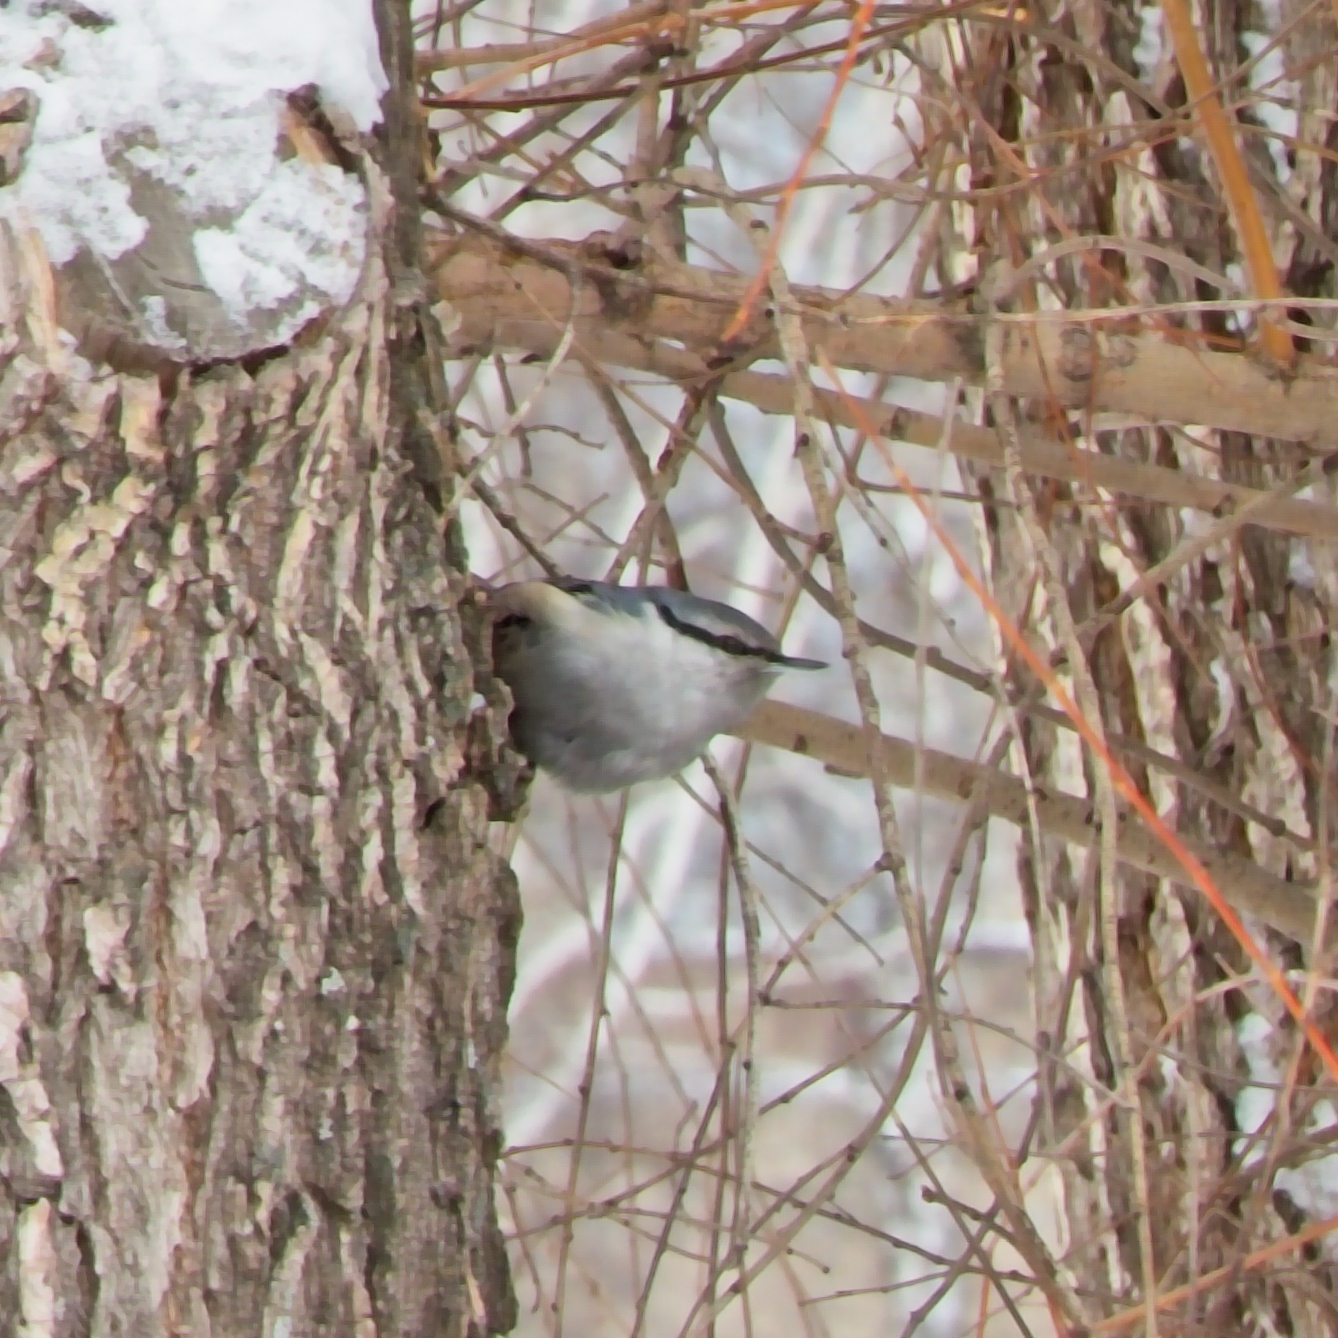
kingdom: Animalia
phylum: Chordata
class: Aves
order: Passeriformes
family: Sittidae
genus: Sitta
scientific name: Sitta europaea
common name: Eurasian nuthatch
